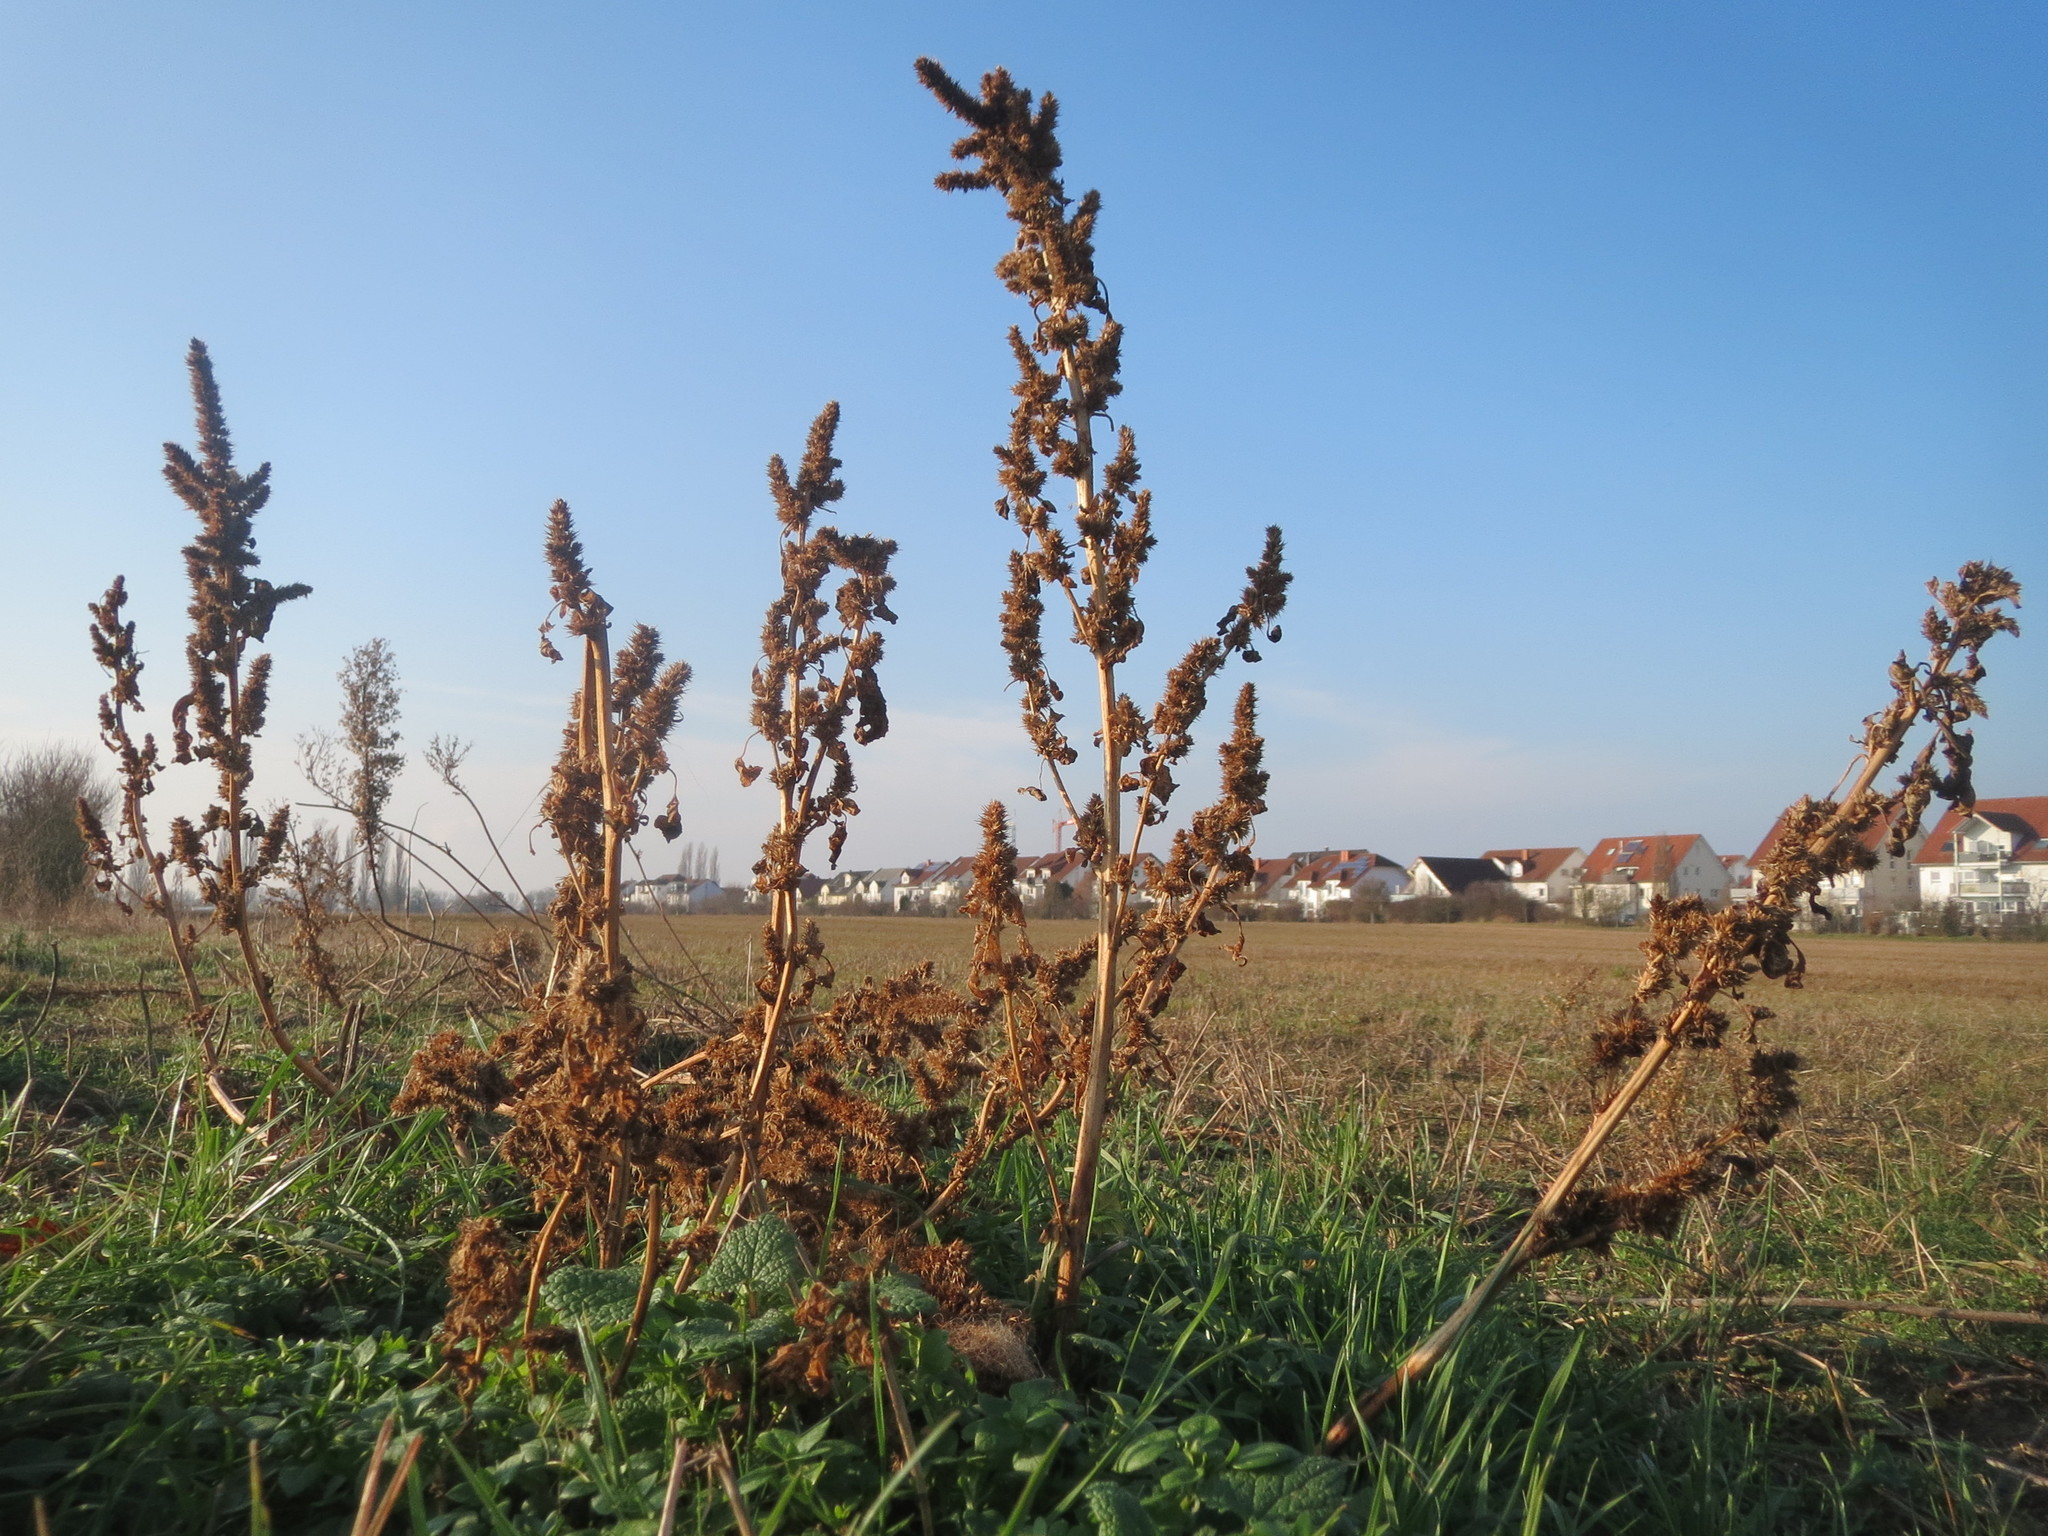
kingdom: Plantae
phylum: Tracheophyta
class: Magnoliopsida
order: Caryophyllales
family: Amaranthaceae
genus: Amaranthus
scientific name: Amaranthus retroflexus
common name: Redroot amaranth
